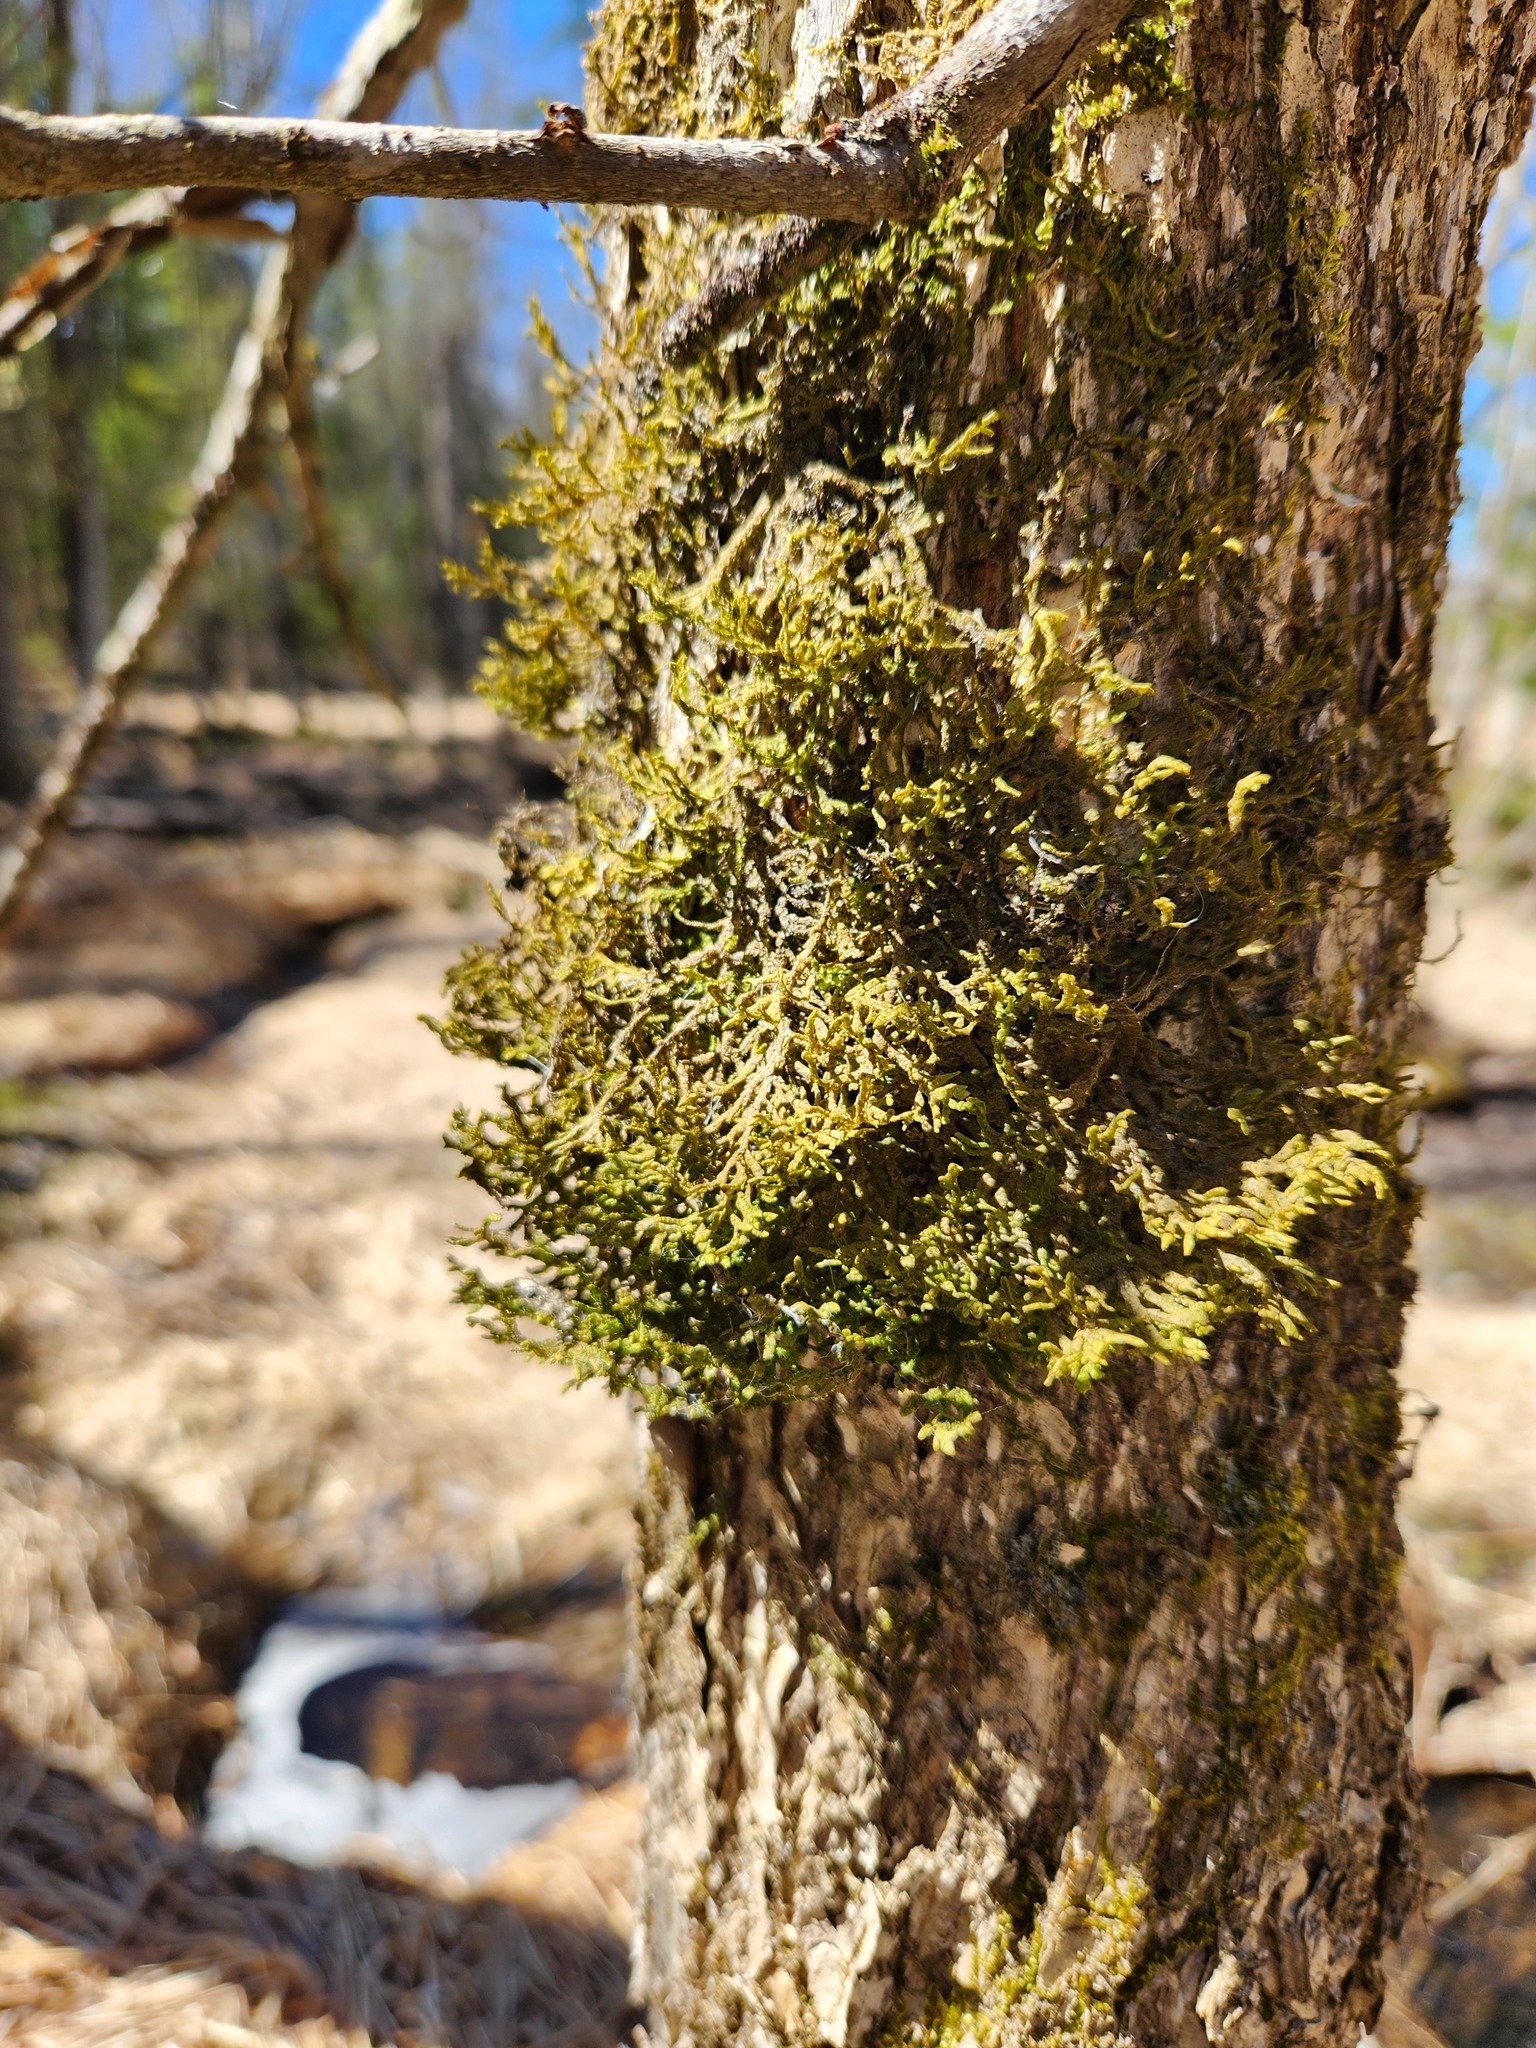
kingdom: Plantae
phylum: Marchantiophyta
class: Jungermanniopsida
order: Porellales
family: Porellaceae
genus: Porella
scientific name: Porella platyphylla
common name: Wall scalewort
